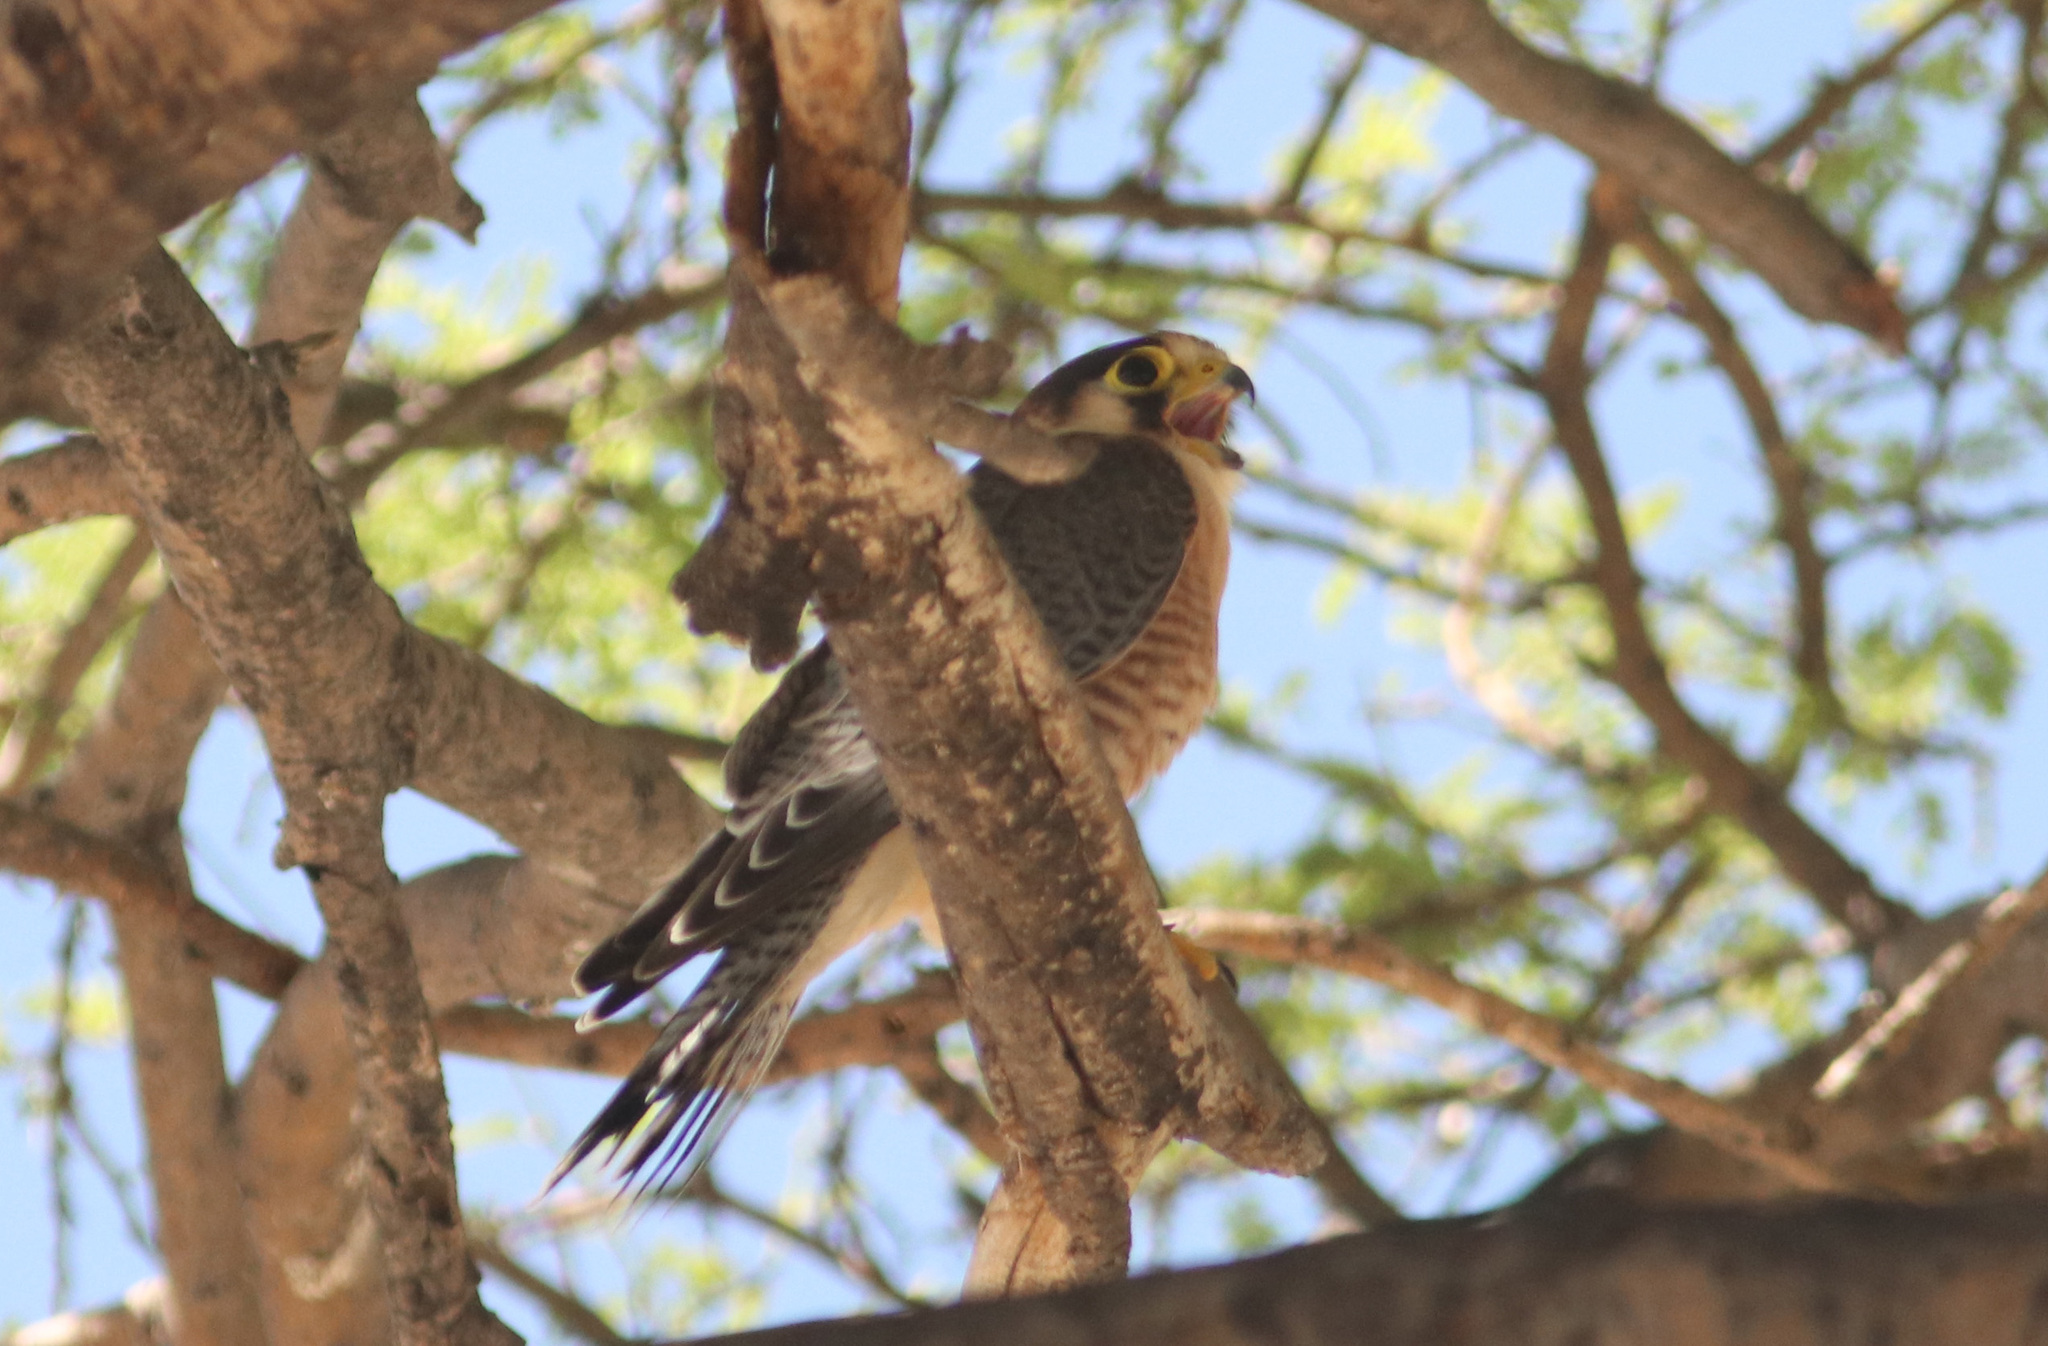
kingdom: Animalia
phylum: Chordata
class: Aves
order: Falconiformes
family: Falconidae
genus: Falco
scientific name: Falco chicquera
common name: Red-necked falcon
